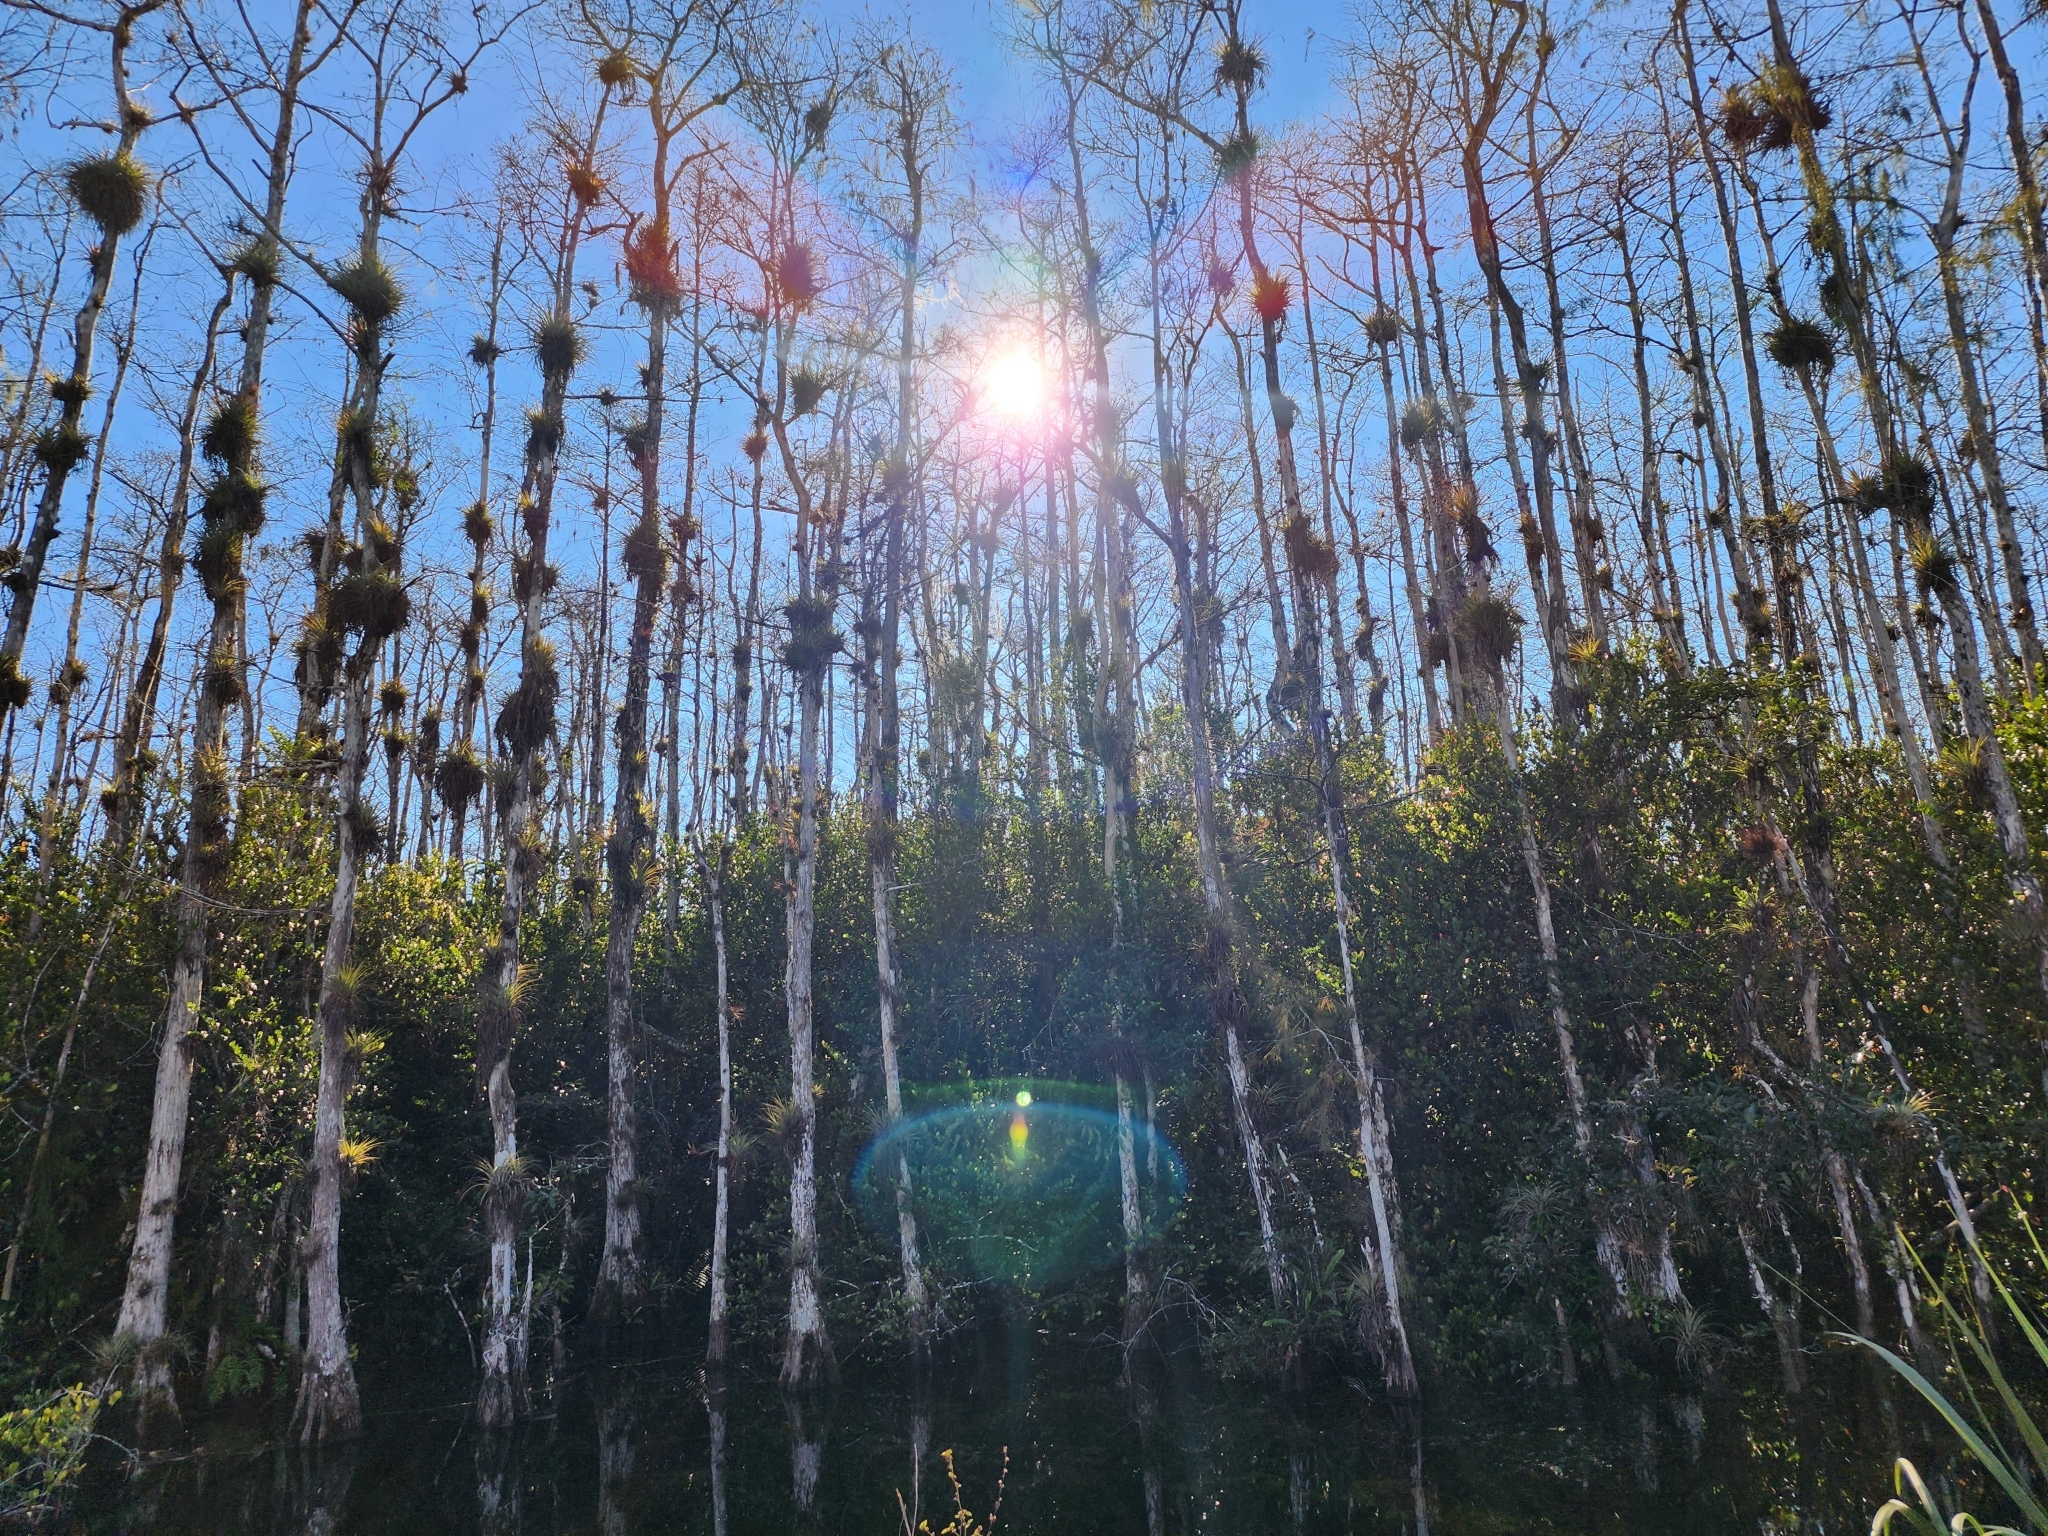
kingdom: Plantae
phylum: Tracheophyta
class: Liliopsida
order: Poales
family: Bromeliaceae
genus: Tillandsia
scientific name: Tillandsia fasciculata
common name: Giant airplant
